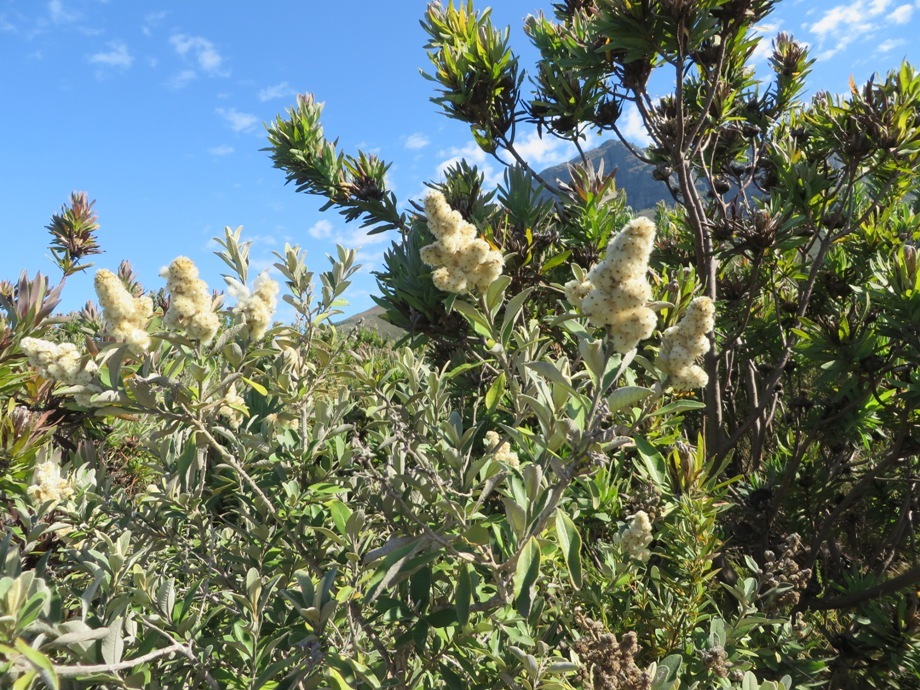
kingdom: Plantae
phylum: Tracheophyta
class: Magnoliopsida
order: Asterales
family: Asteraceae
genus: Brachylaena
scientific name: Brachylaena neriifolia
